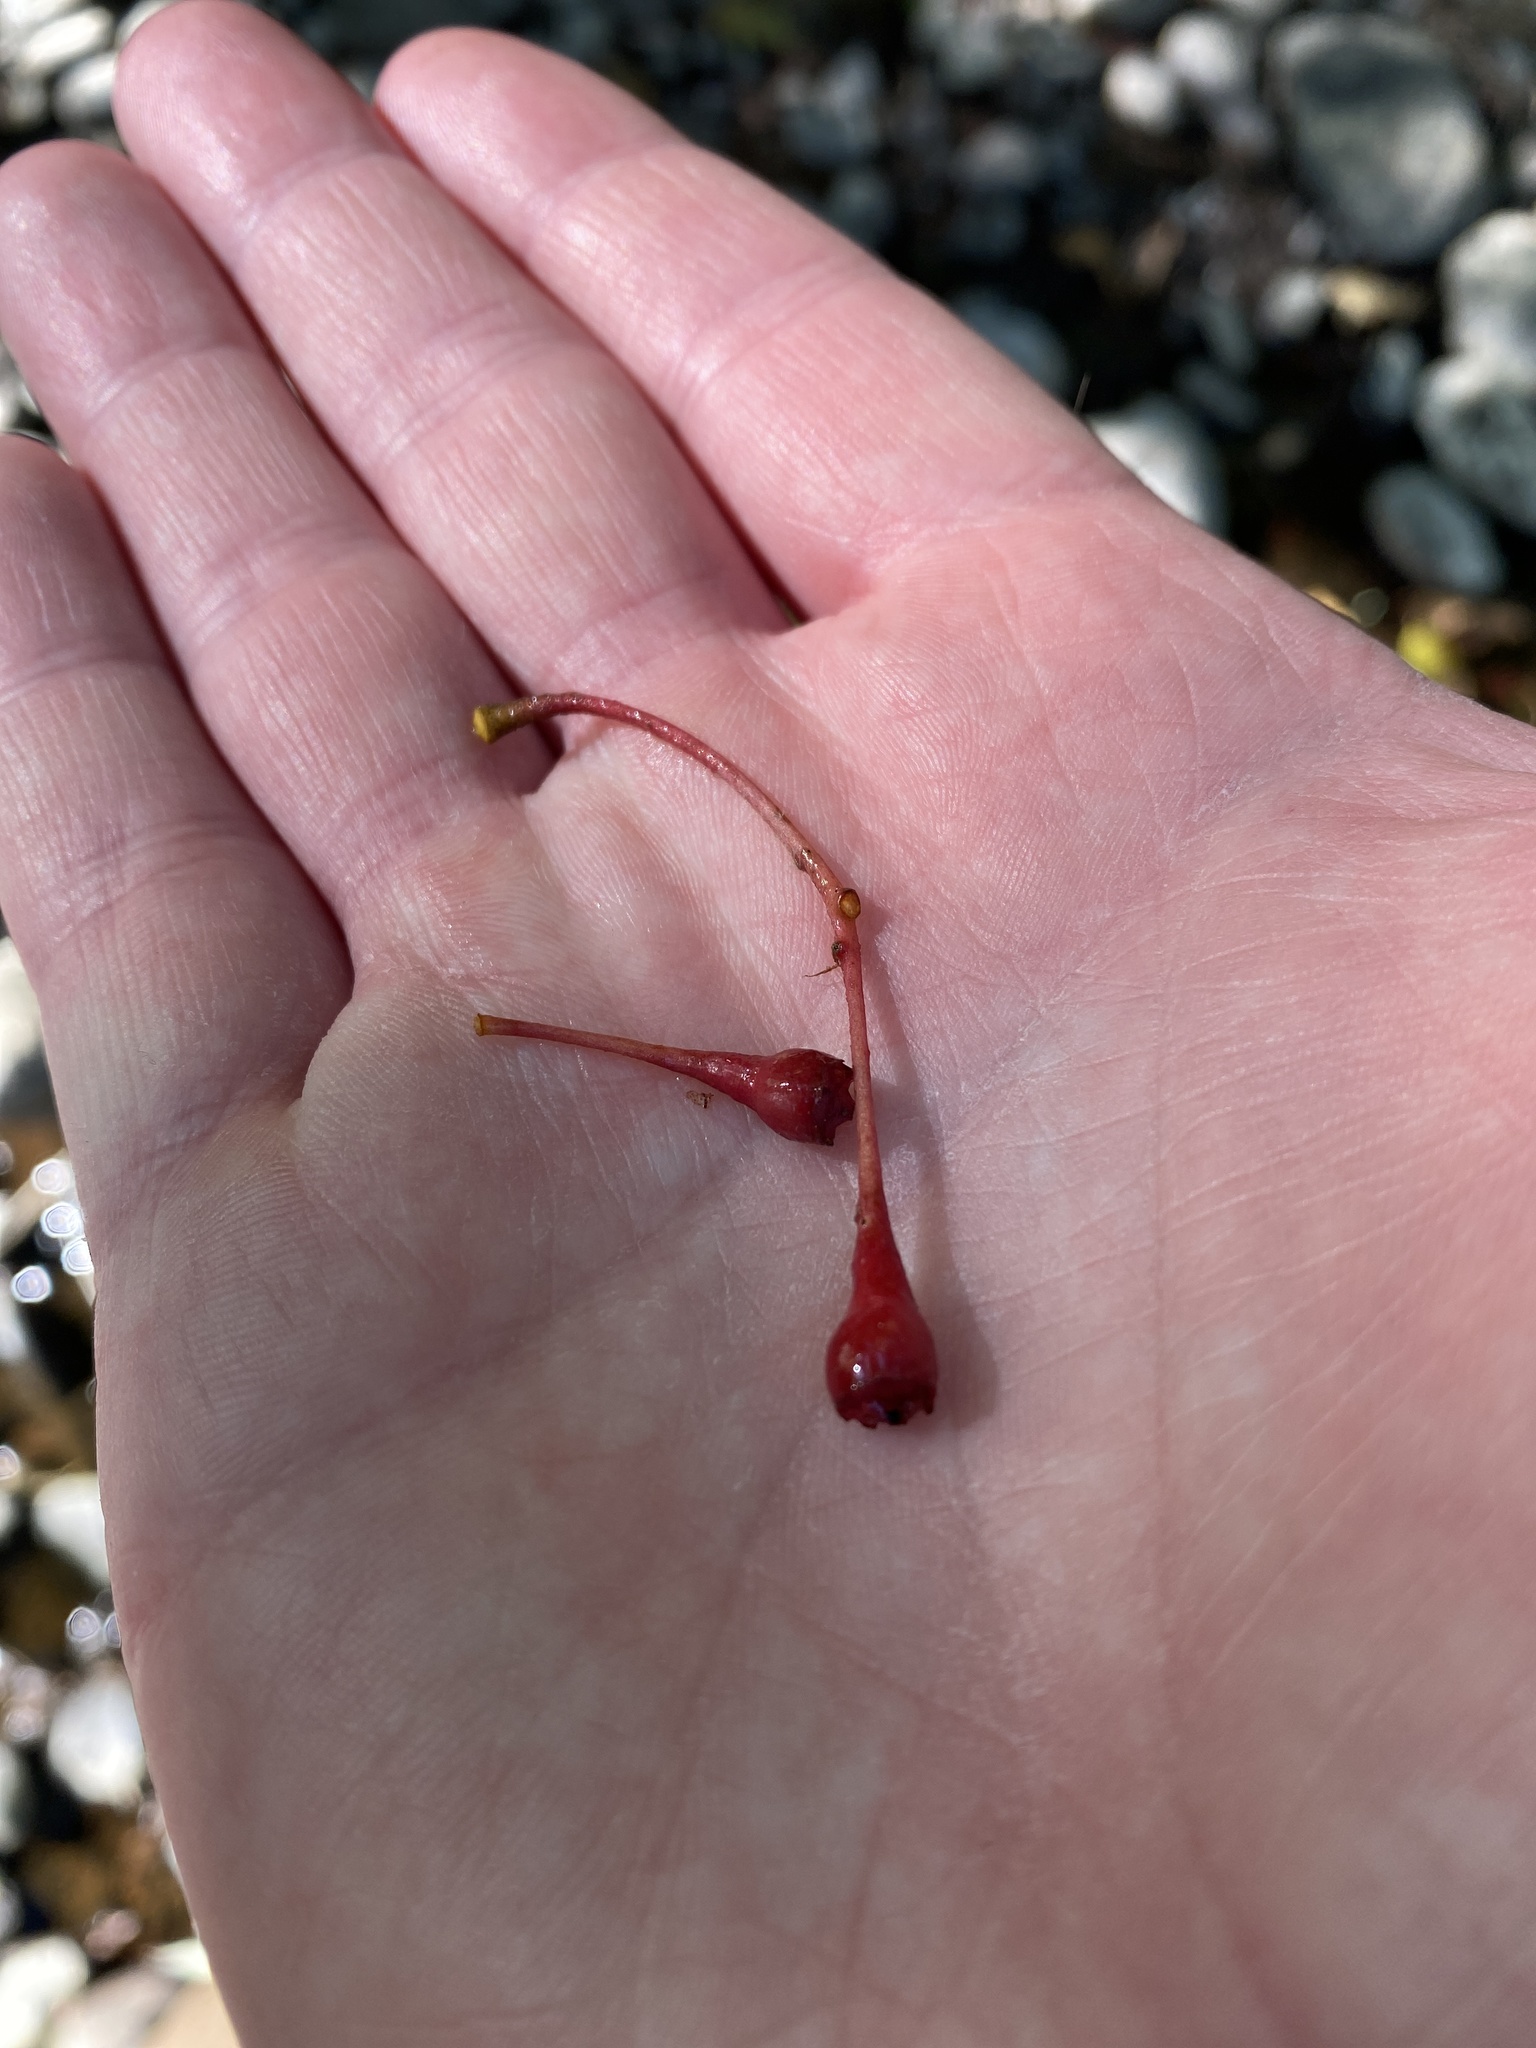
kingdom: Plantae
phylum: Tracheophyta
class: Magnoliopsida
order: Laurales
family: Lauraceae
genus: Sassafras
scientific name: Sassafras albidum
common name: Sassafras
